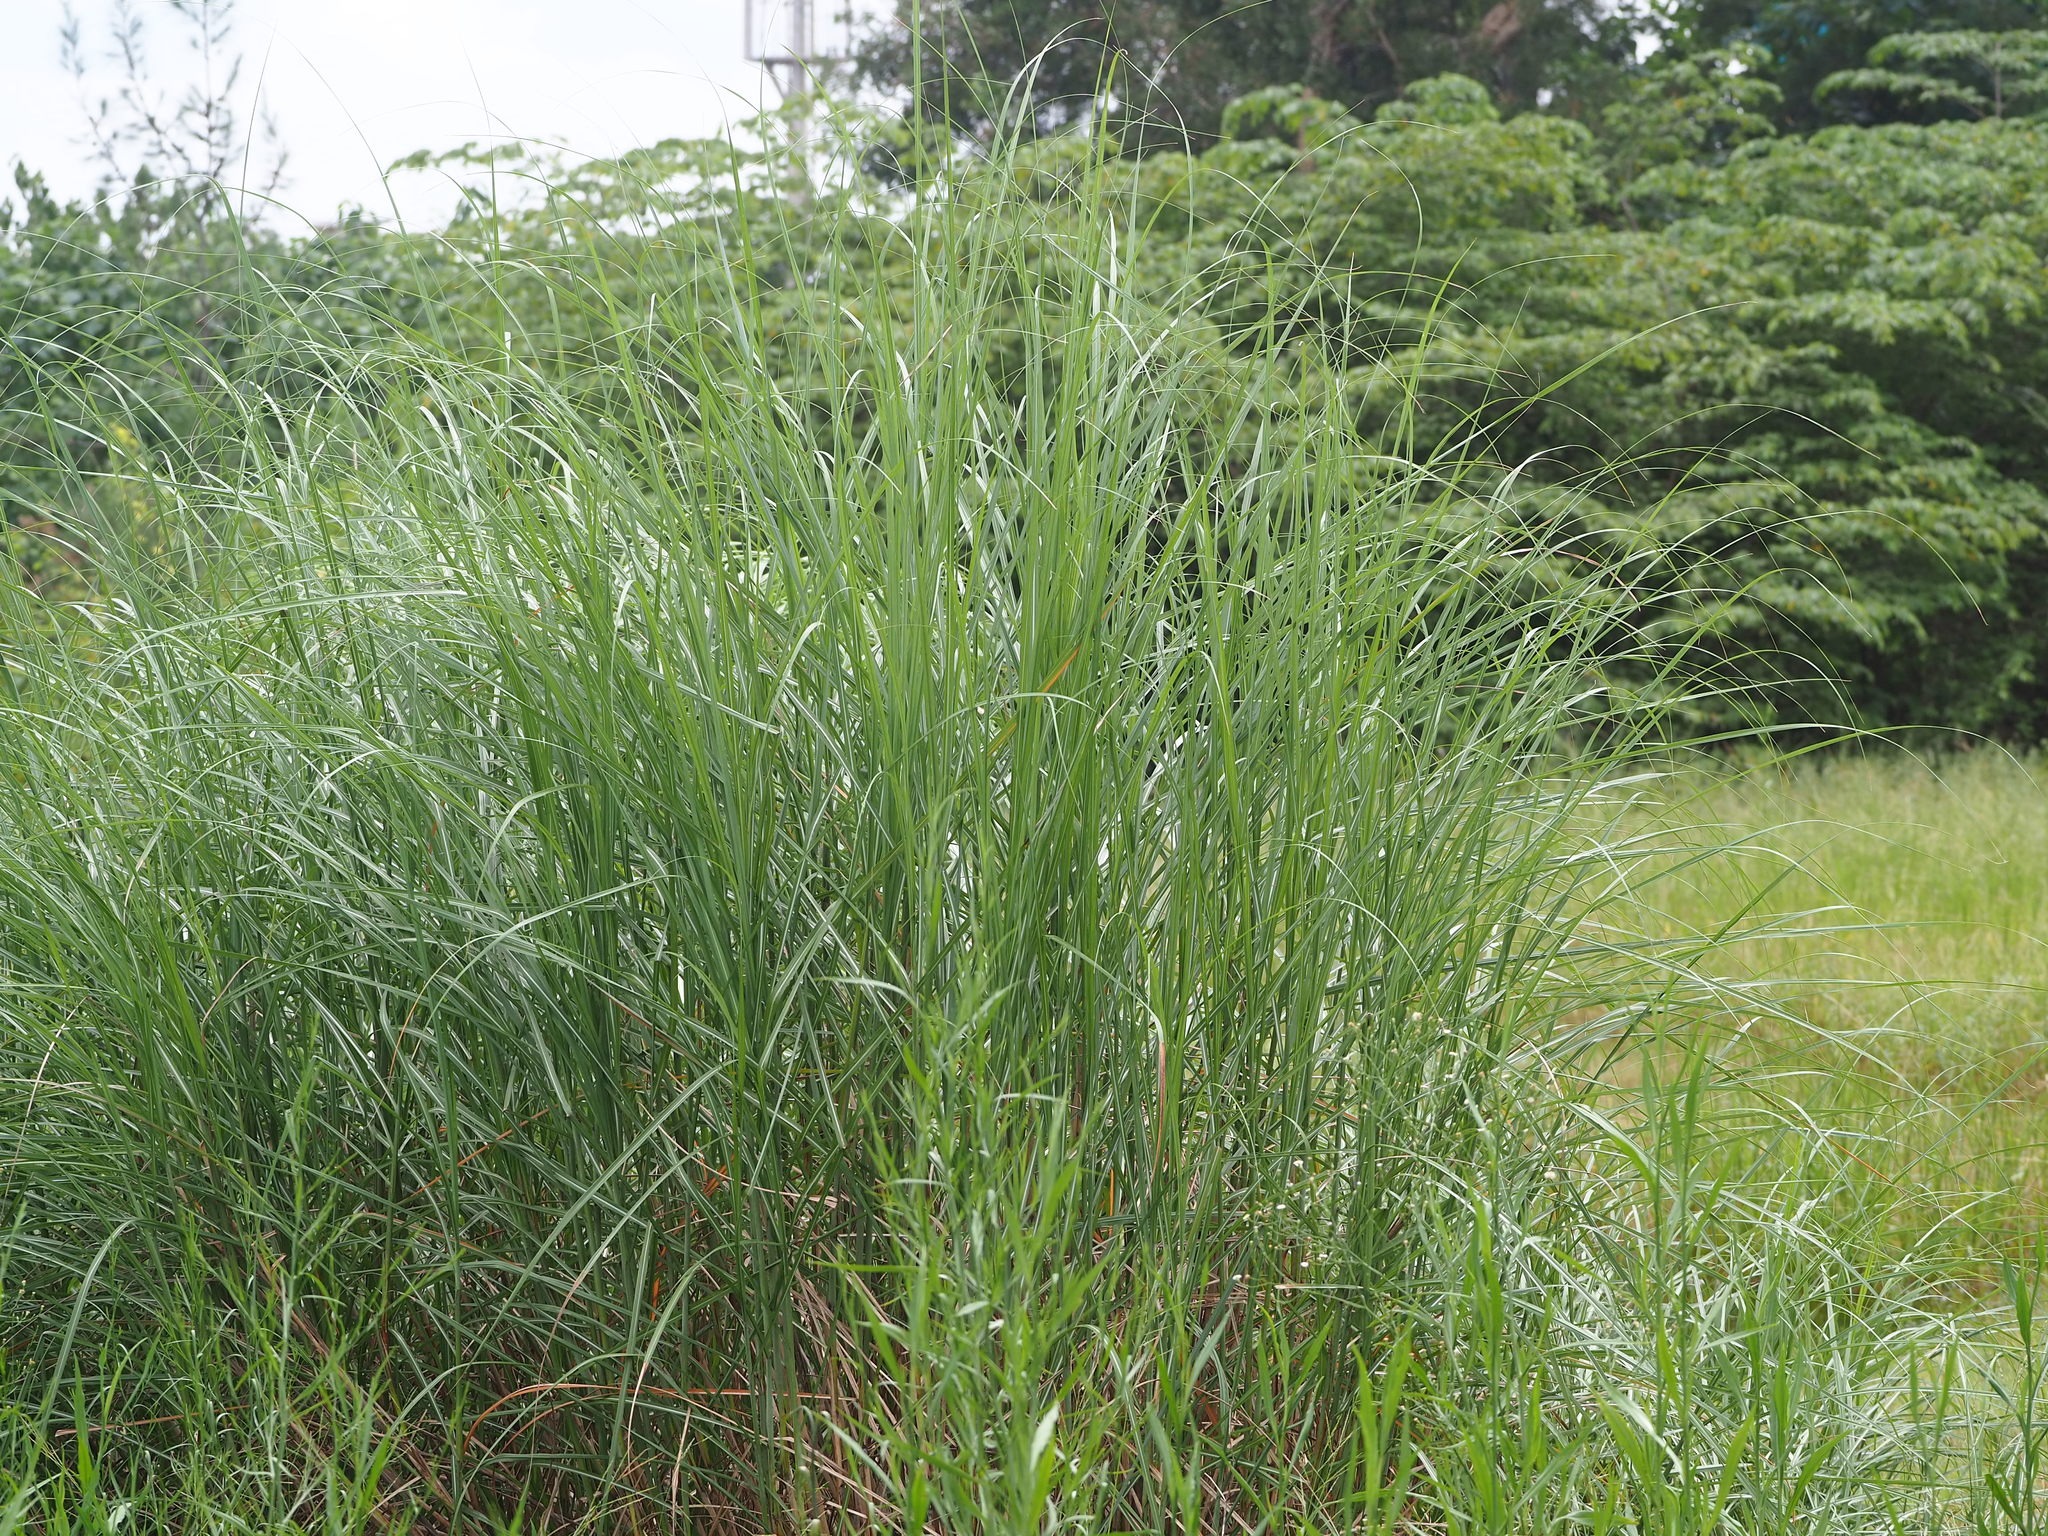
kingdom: Plantae
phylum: Tracheophyta
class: Liliopsida
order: Poales
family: Poaceae
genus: Saccharum
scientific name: Saccharum spontaneum
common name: Wild sugarcane
